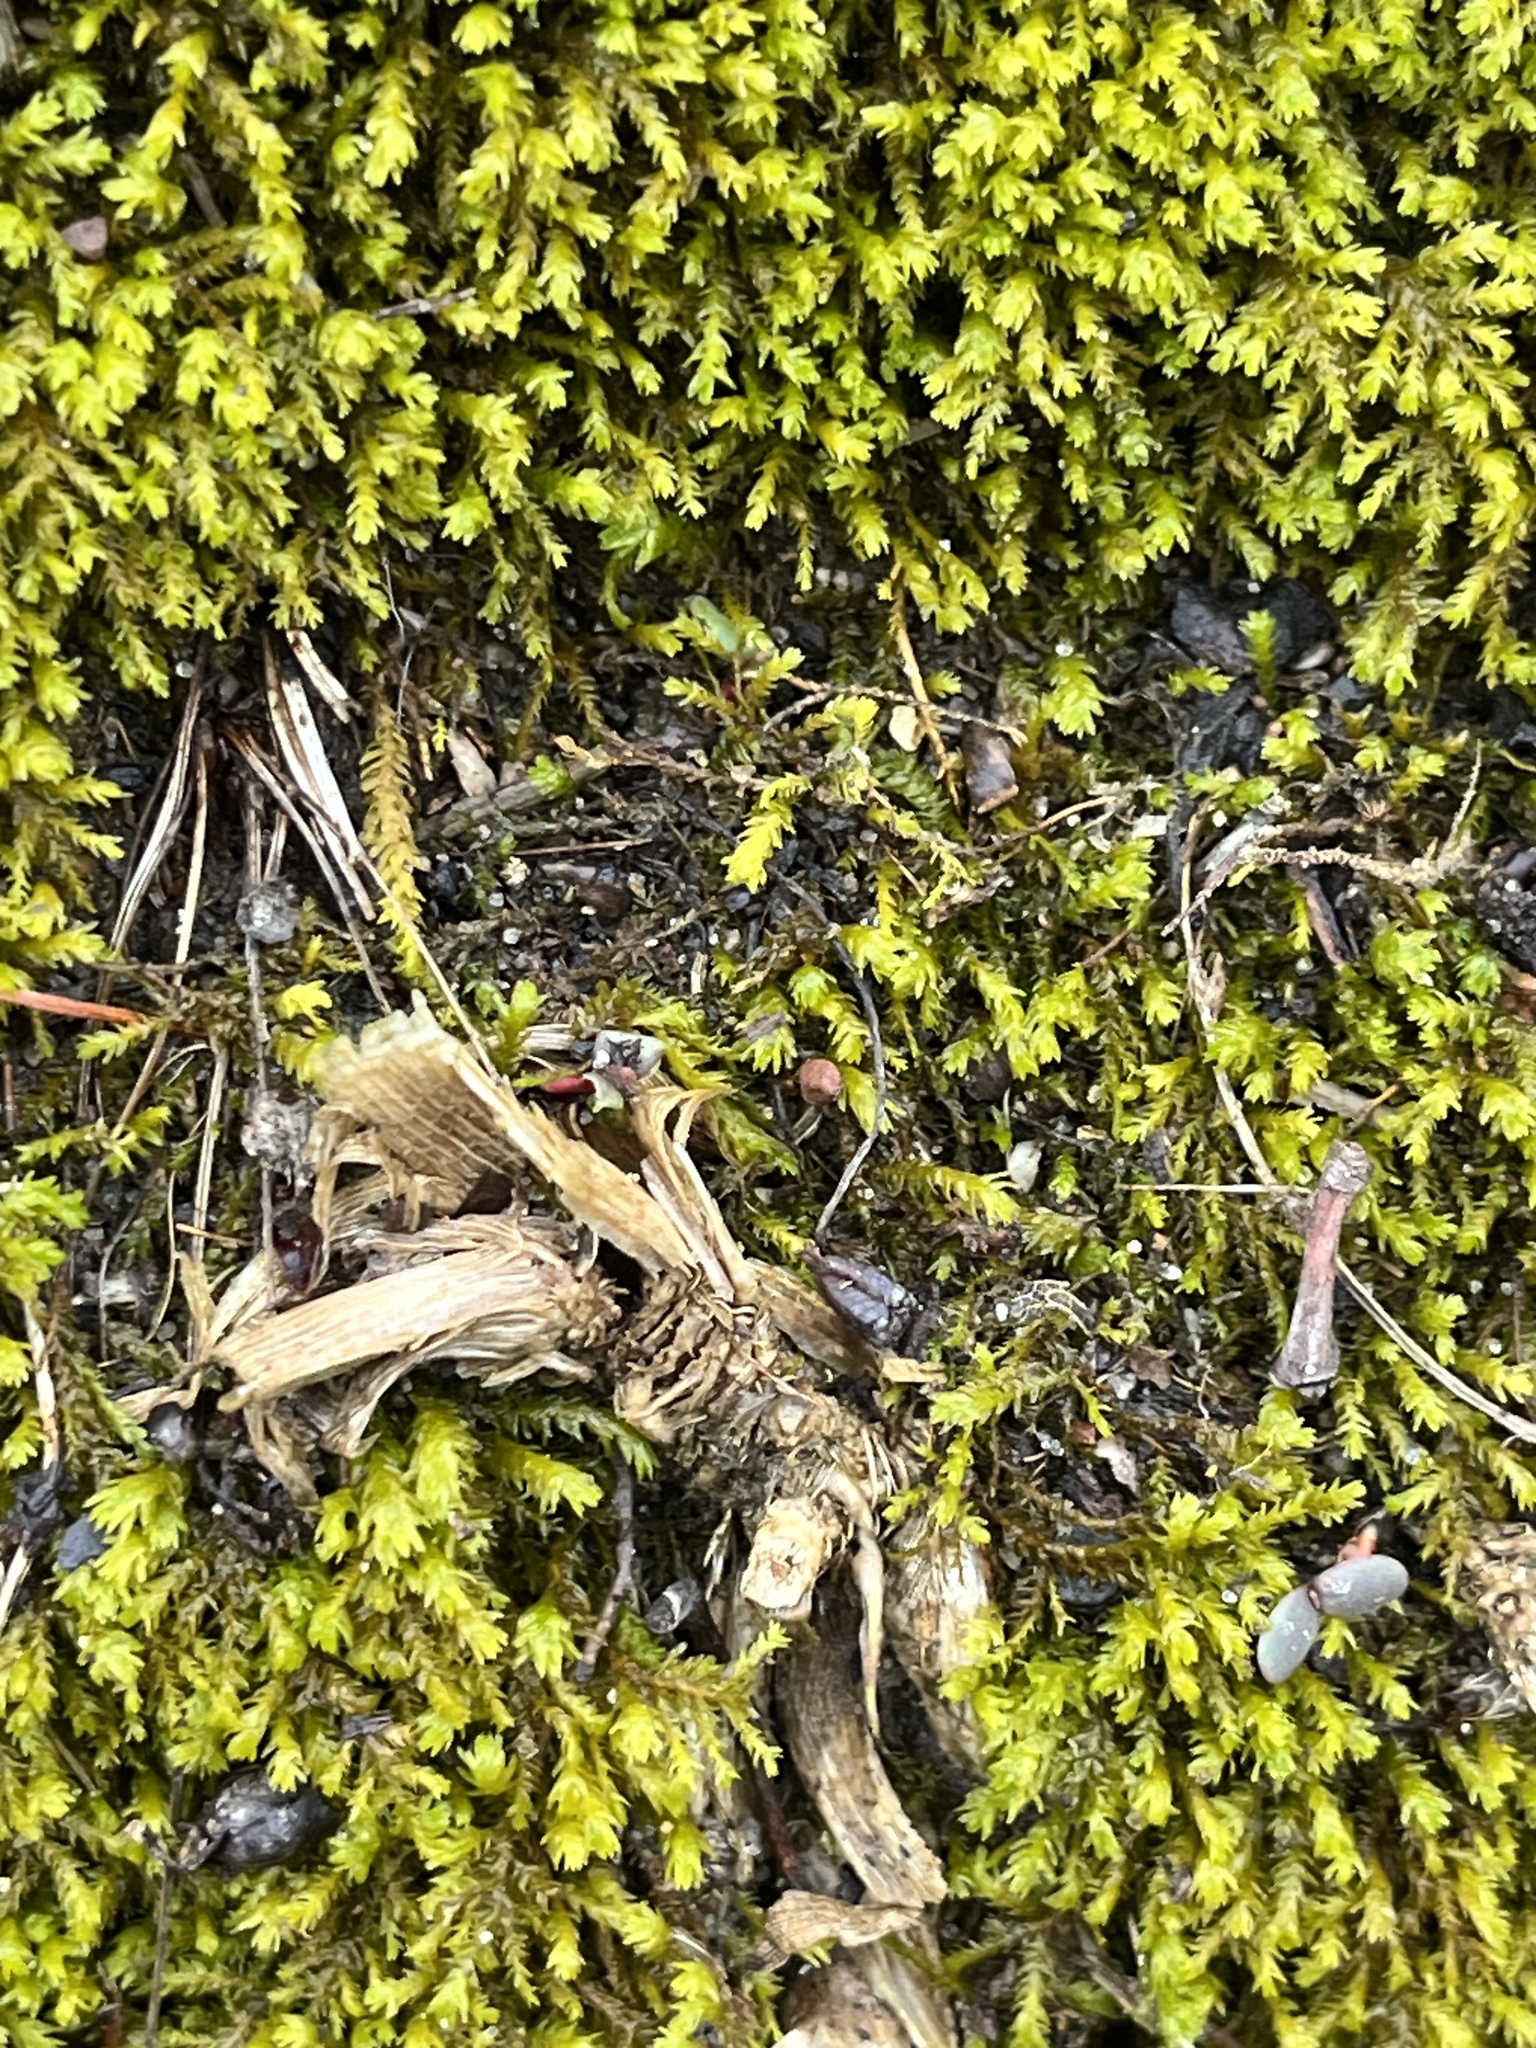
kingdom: Plantae
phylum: Bryophyta
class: Bryopsida
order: Hypnales
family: Neckeraceae
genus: Pseudanomodon
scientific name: Pseudanomodon attenuatus
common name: Tree-skirt moss
